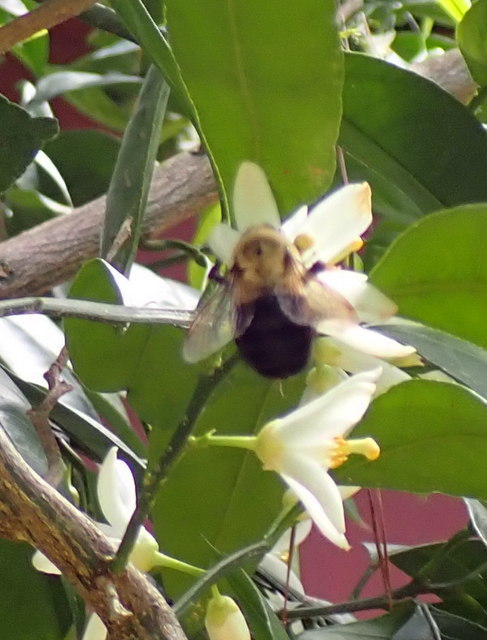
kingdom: Animalia
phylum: Arthropoda
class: Insecta
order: Hymenoptera
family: Apidae
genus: Bombus
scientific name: Bombus impatiens
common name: Common eastern bumble bee
